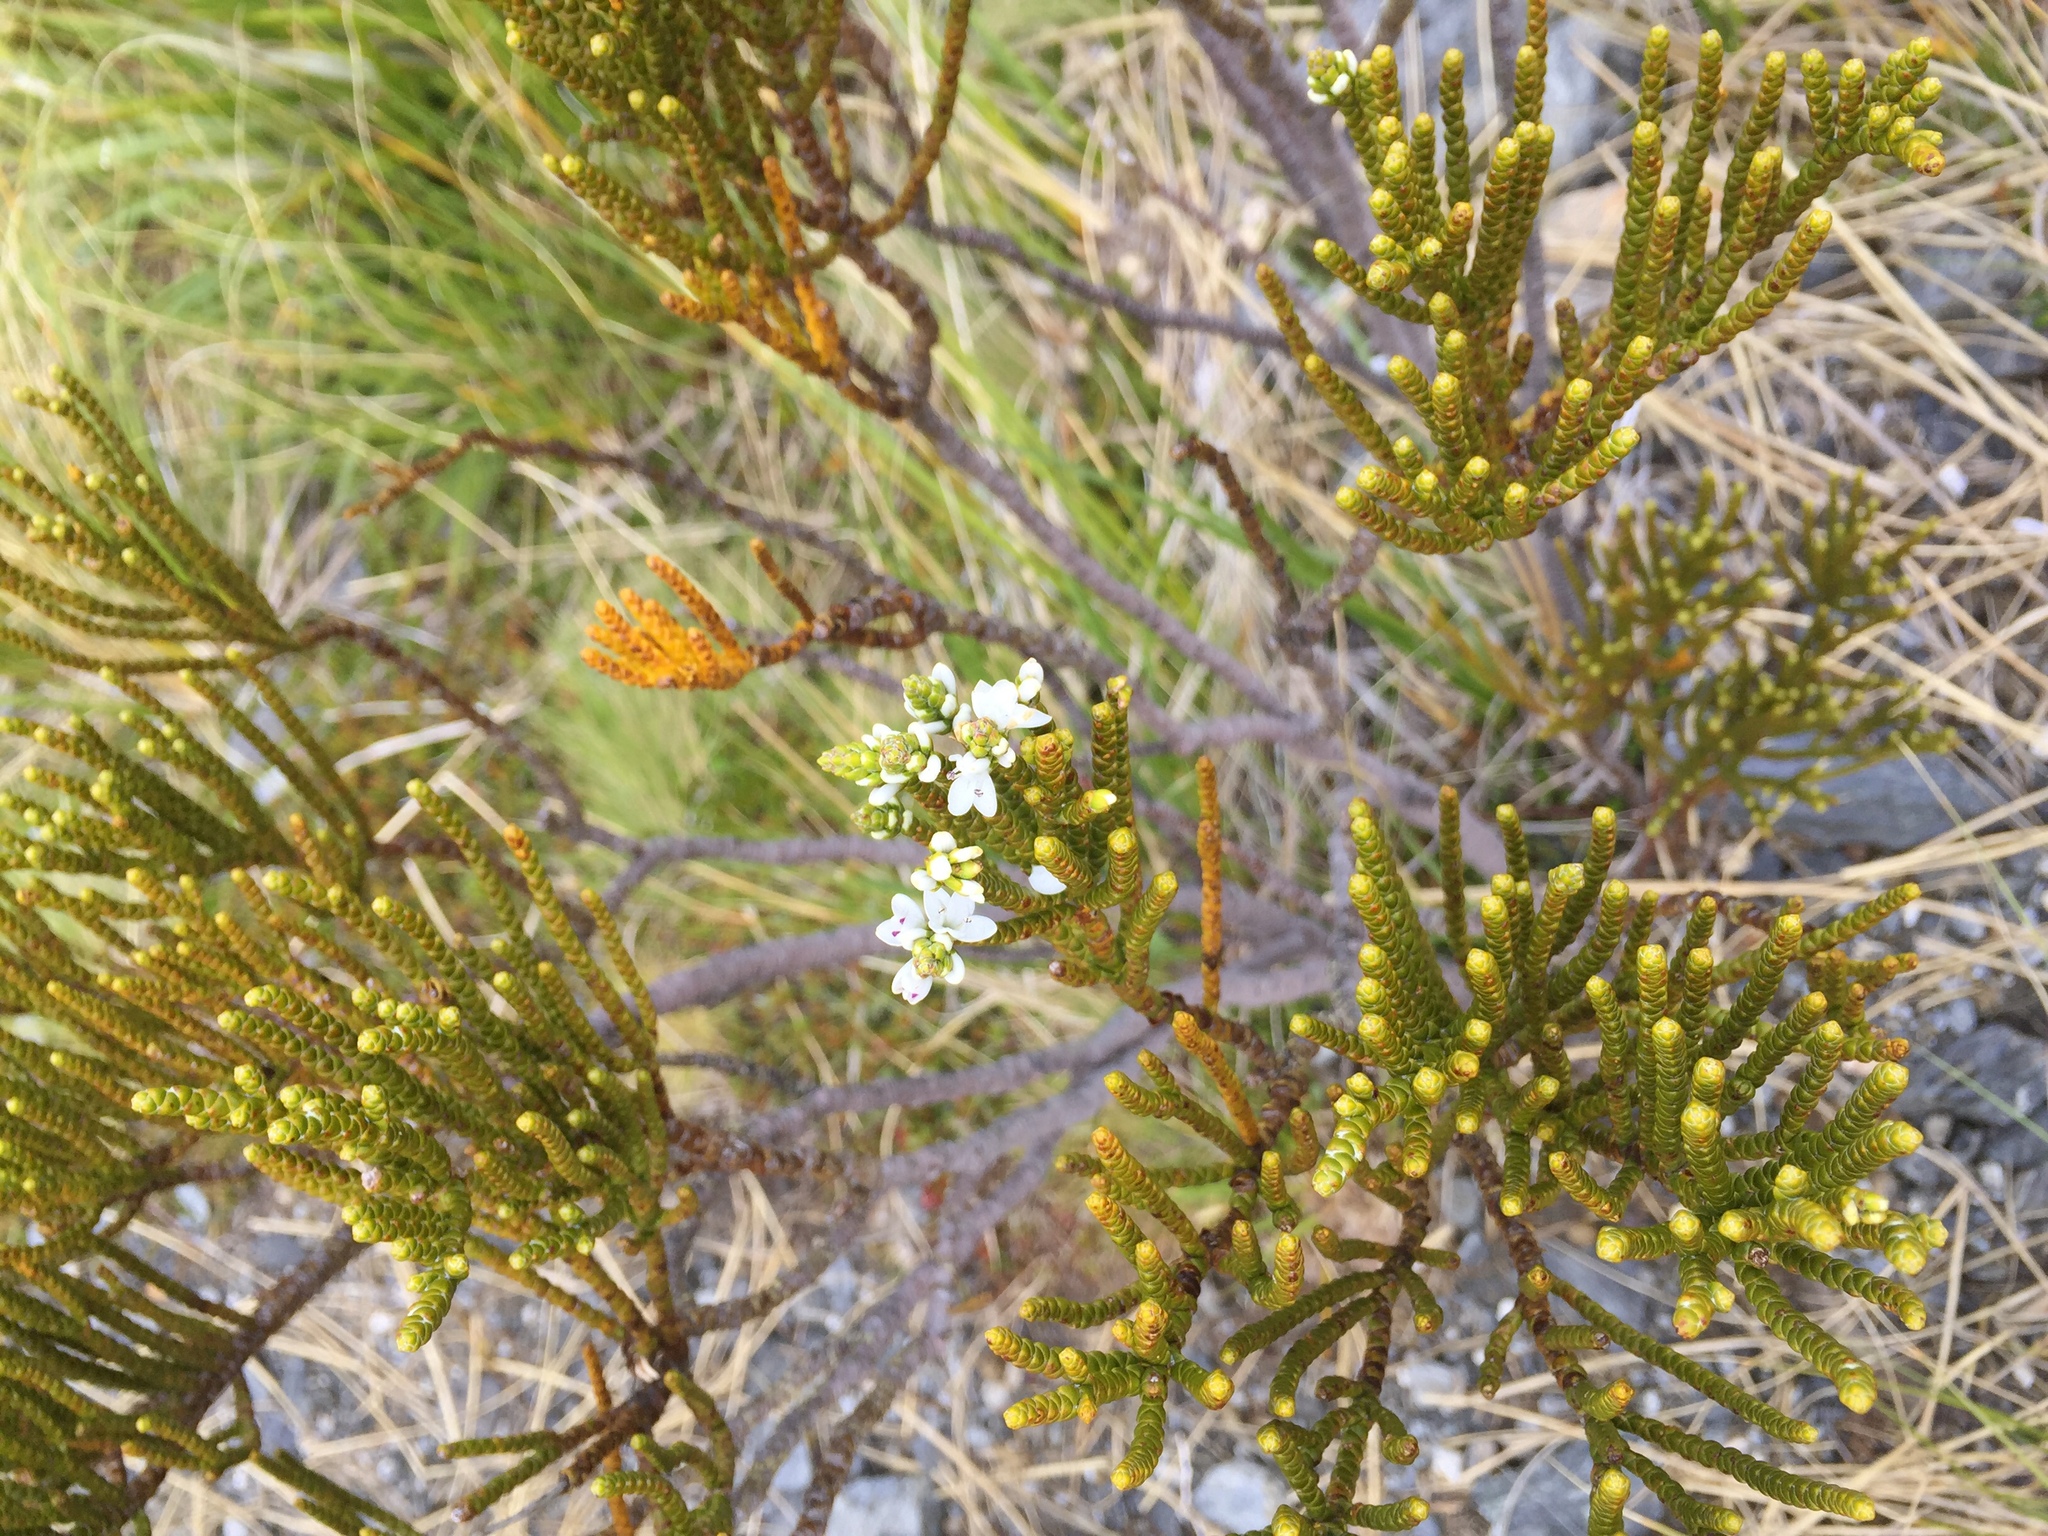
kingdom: Plantae
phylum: Tracheophyta
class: Magnoliopsida
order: Lamiales
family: Plantaginaceae
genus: Veronica
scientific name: Veronica hectorii
